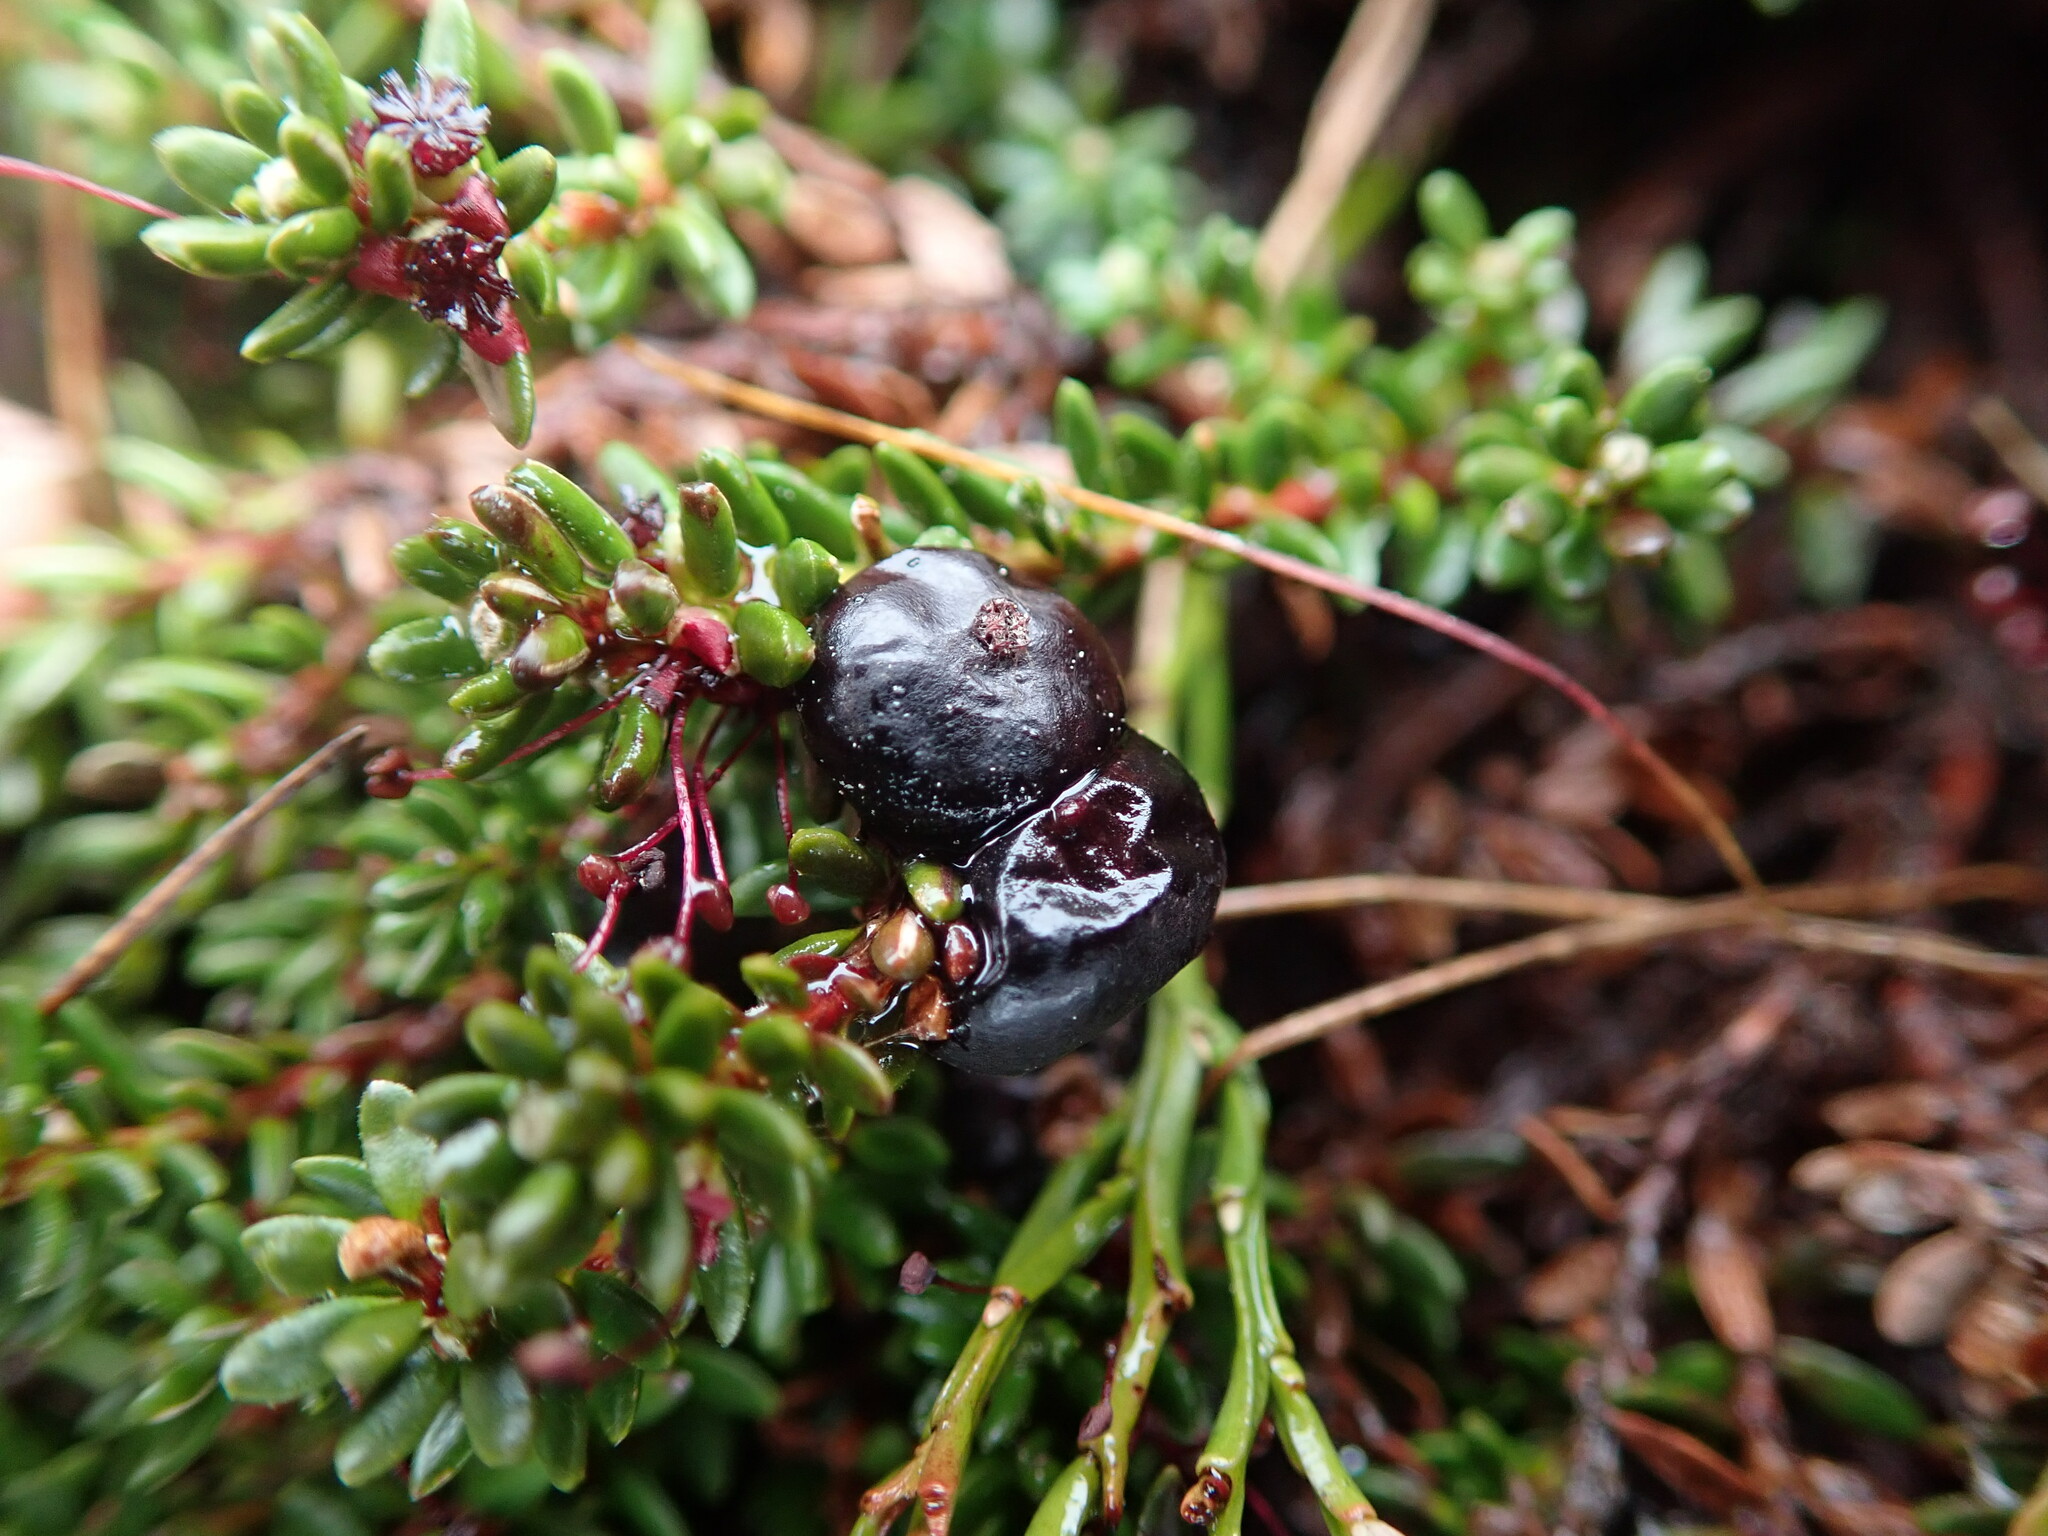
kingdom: Plantae
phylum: Tracheophyta
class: Magnoliopsida
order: Ericales
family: Ericaceae
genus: Empetrum
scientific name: Empetrum nigrum
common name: Black crowberry
